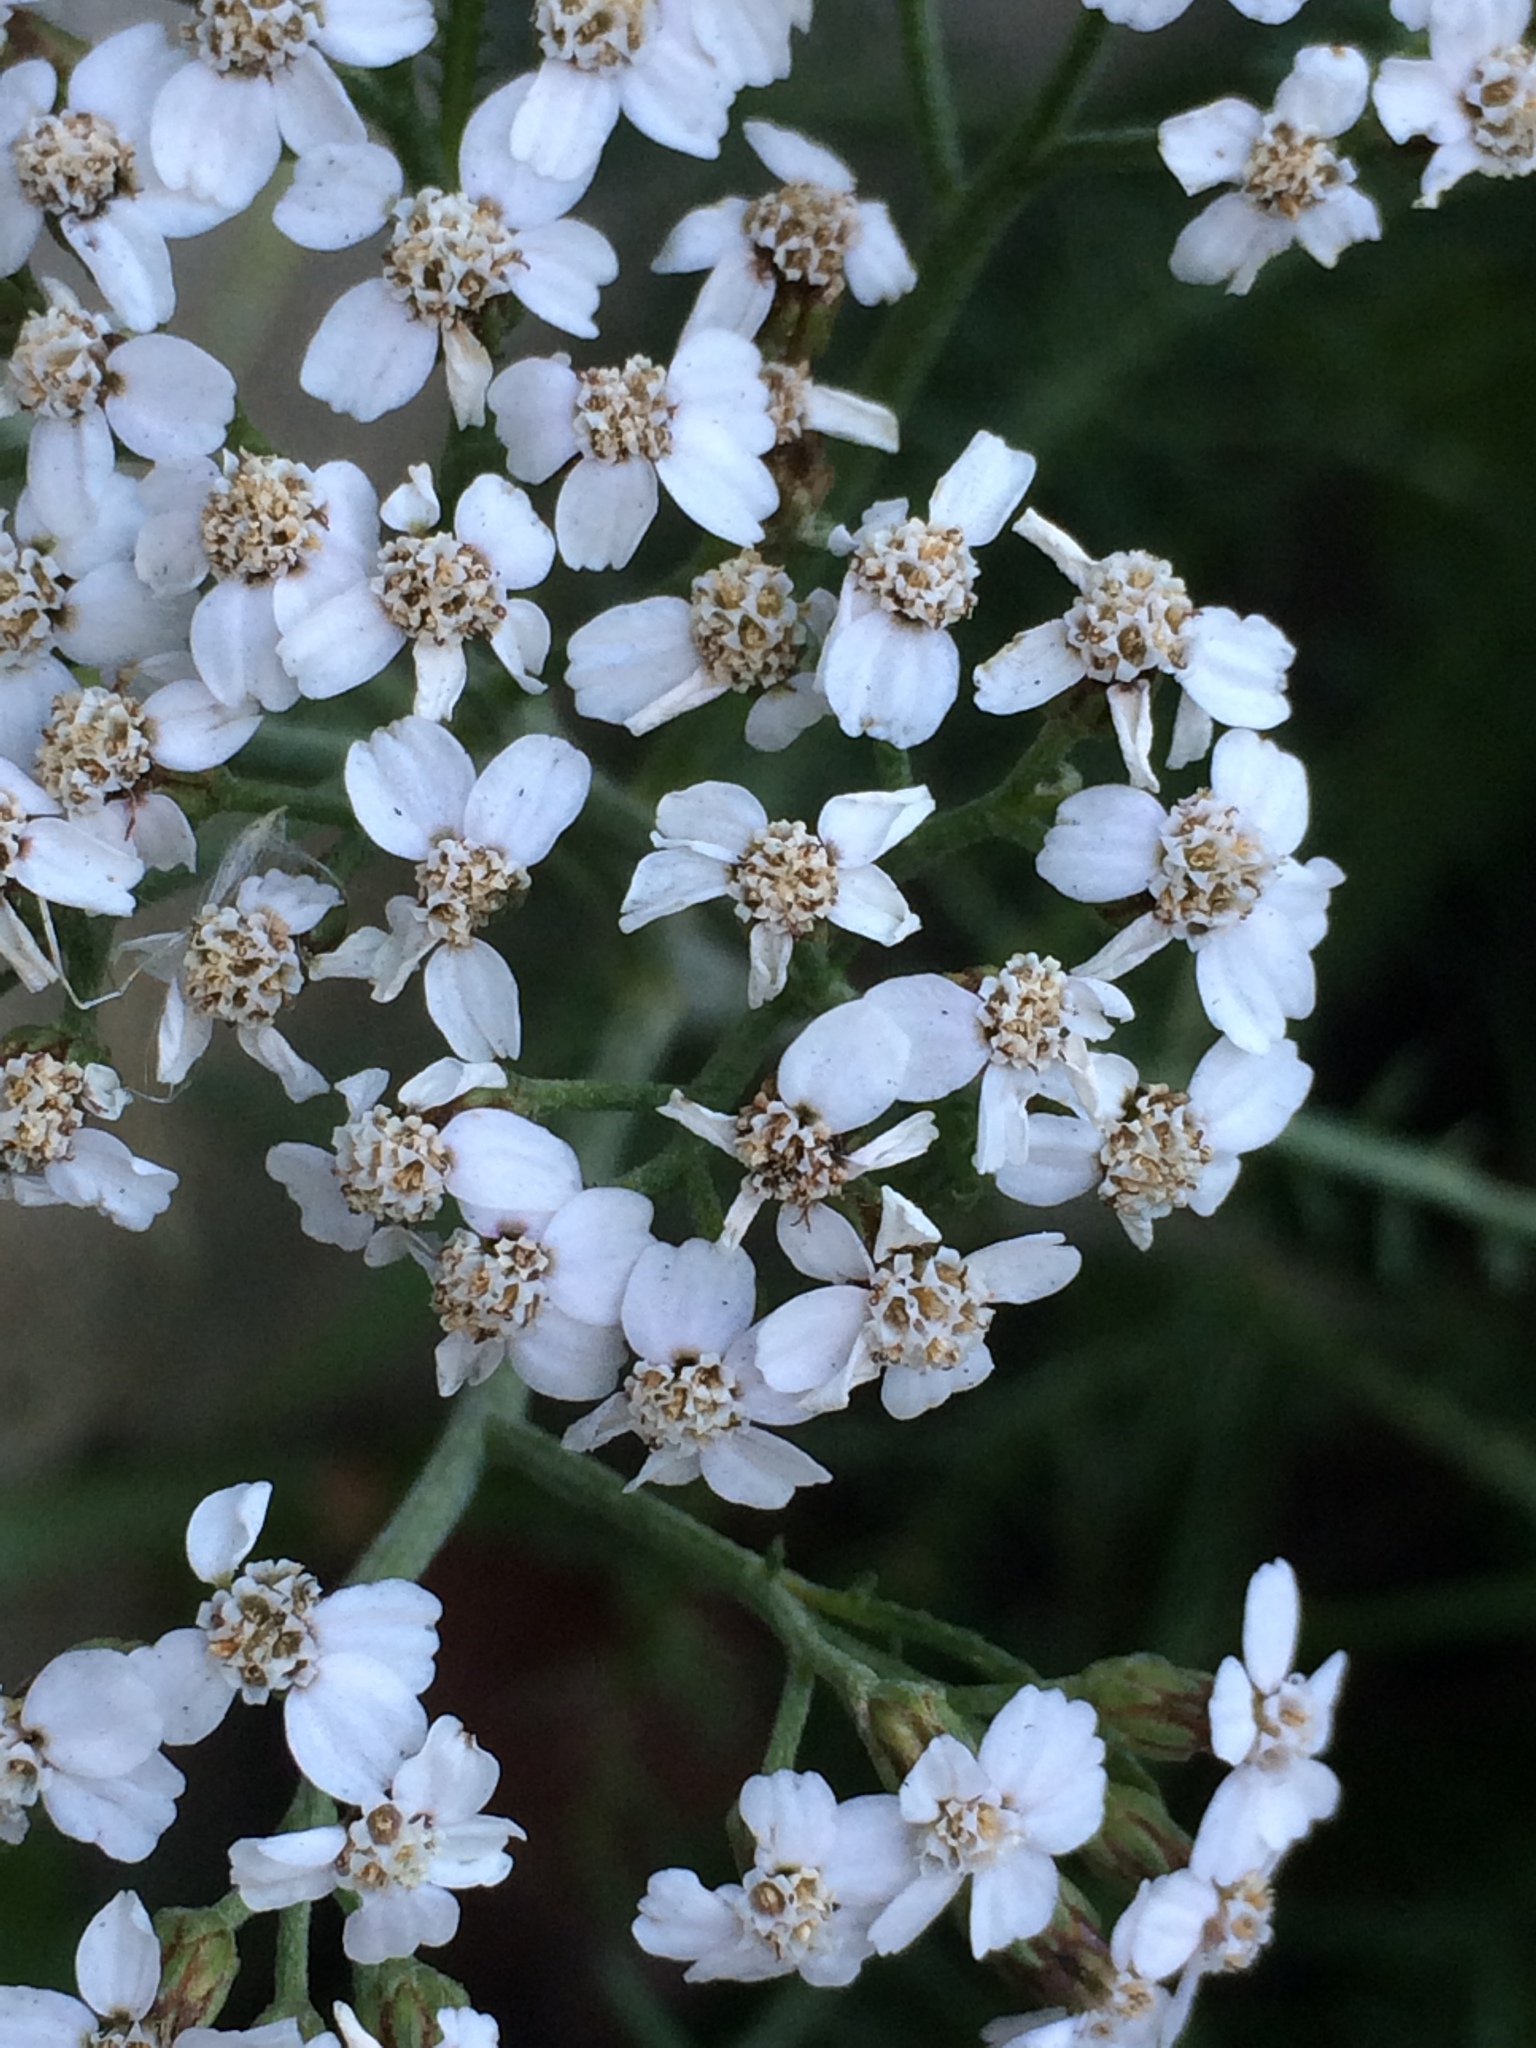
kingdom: Plantae
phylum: Tracheophyta
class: Magnoliopsida
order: Asterales
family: Asteraceae
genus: Achillea
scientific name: Achillea millefolium
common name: Yarrow
